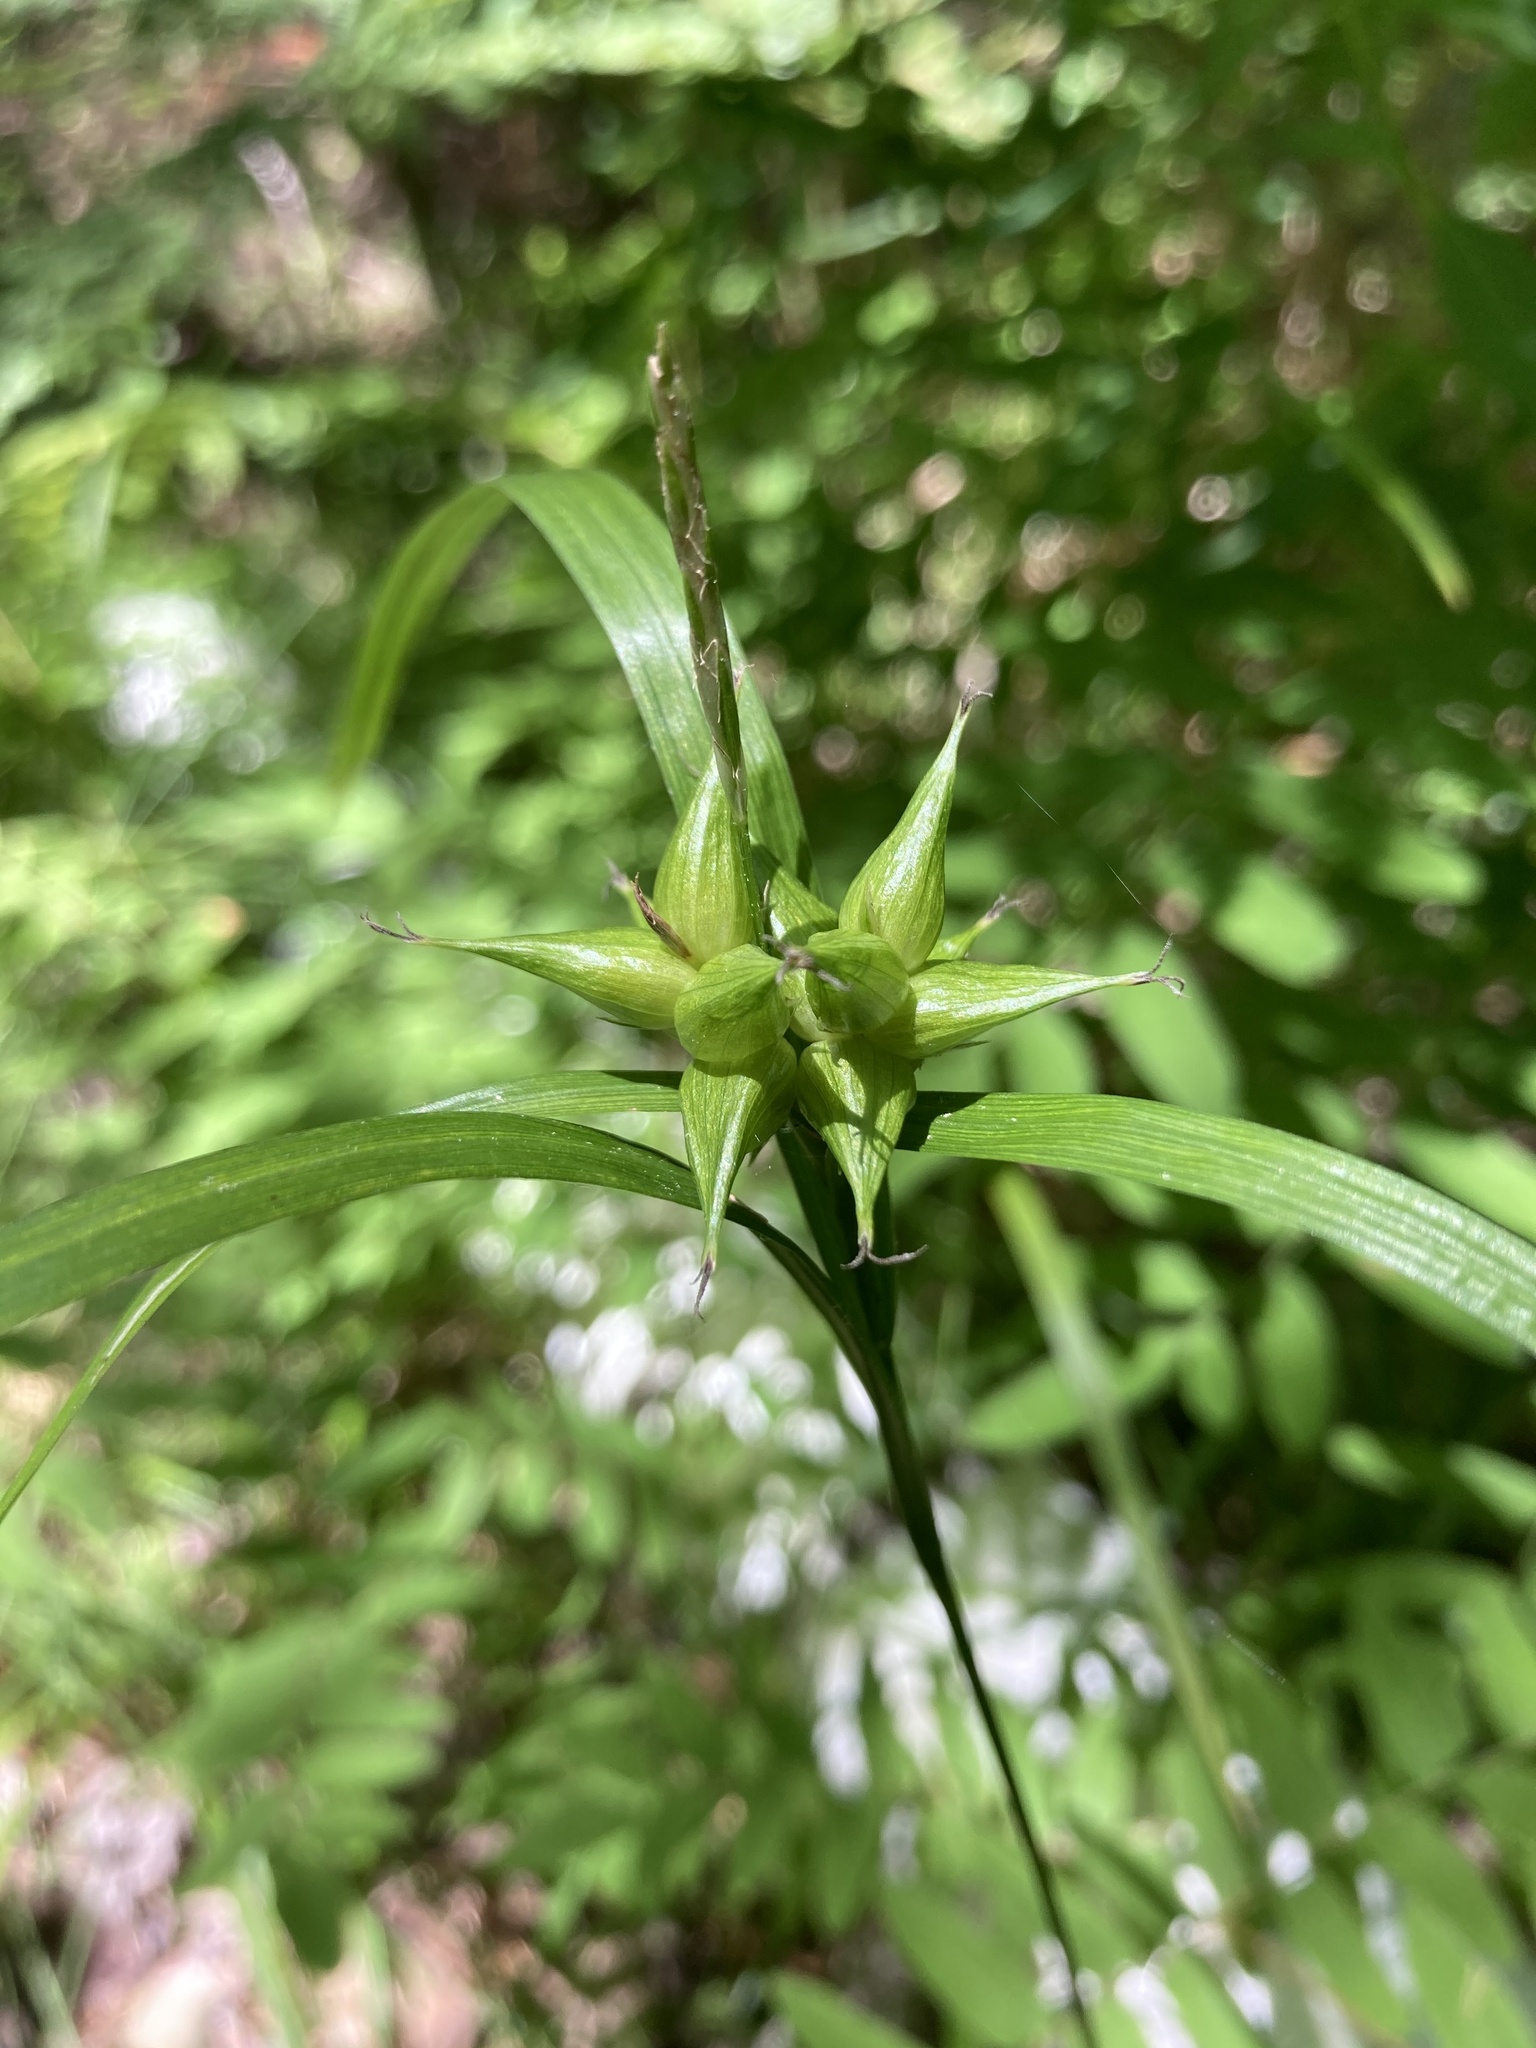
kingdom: Plantae
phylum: Tracheophyta
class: Liliopsida
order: Poales
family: Cyperaceae
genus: Carex
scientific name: Carex intumescens
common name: Greater bladder sedge
